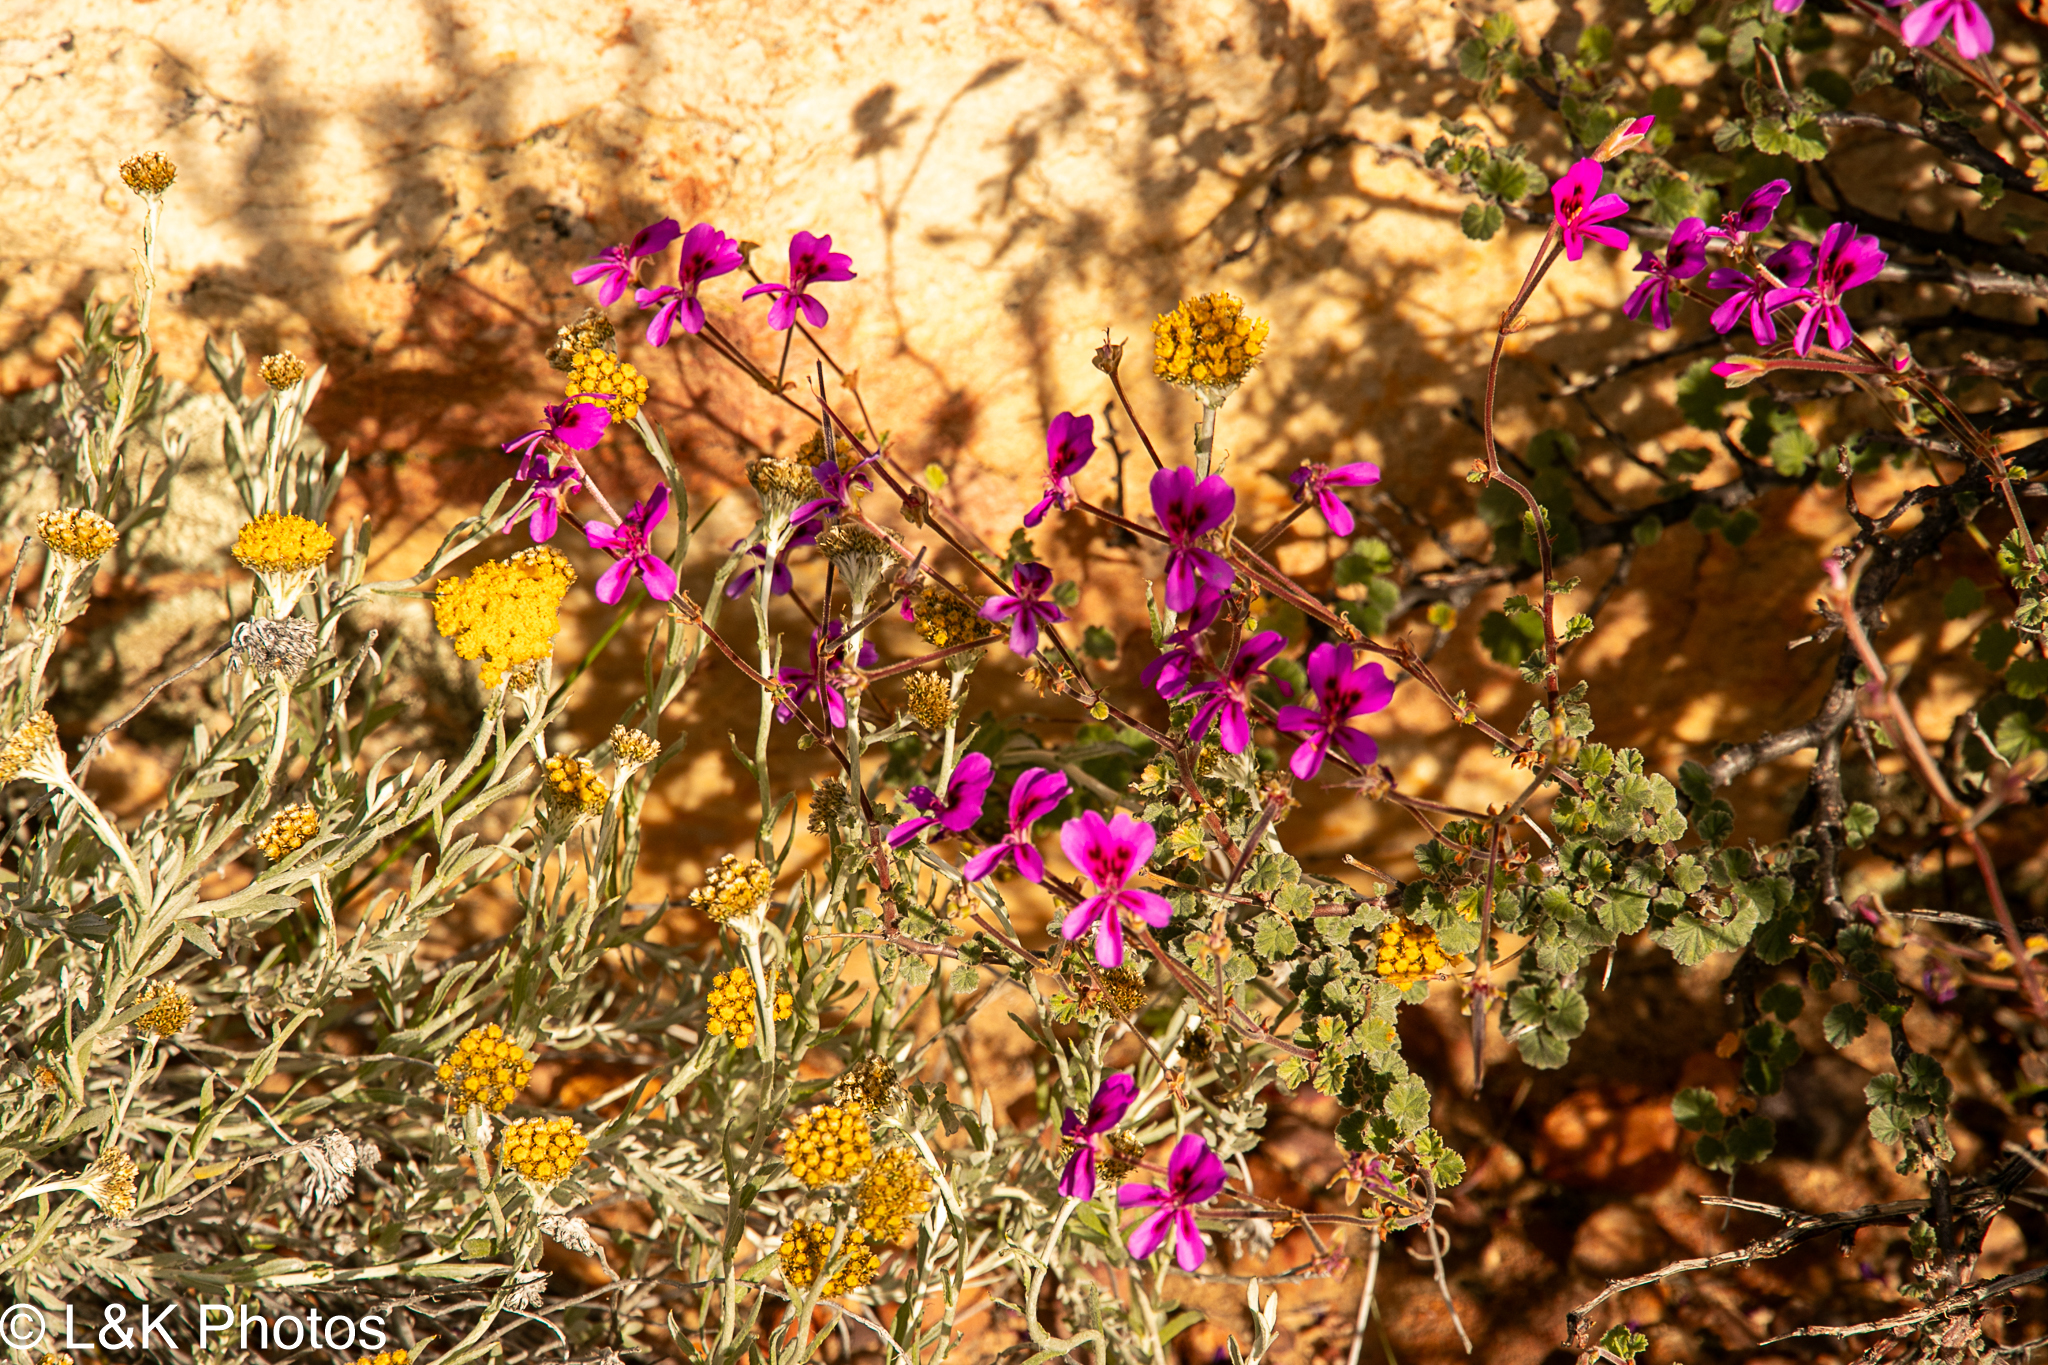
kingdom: Plantae
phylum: Tracheophyta
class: Magnoliopsida
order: Geraniales
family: Geraniaceae
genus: Pelargonium
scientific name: Pelargonium magenteum
